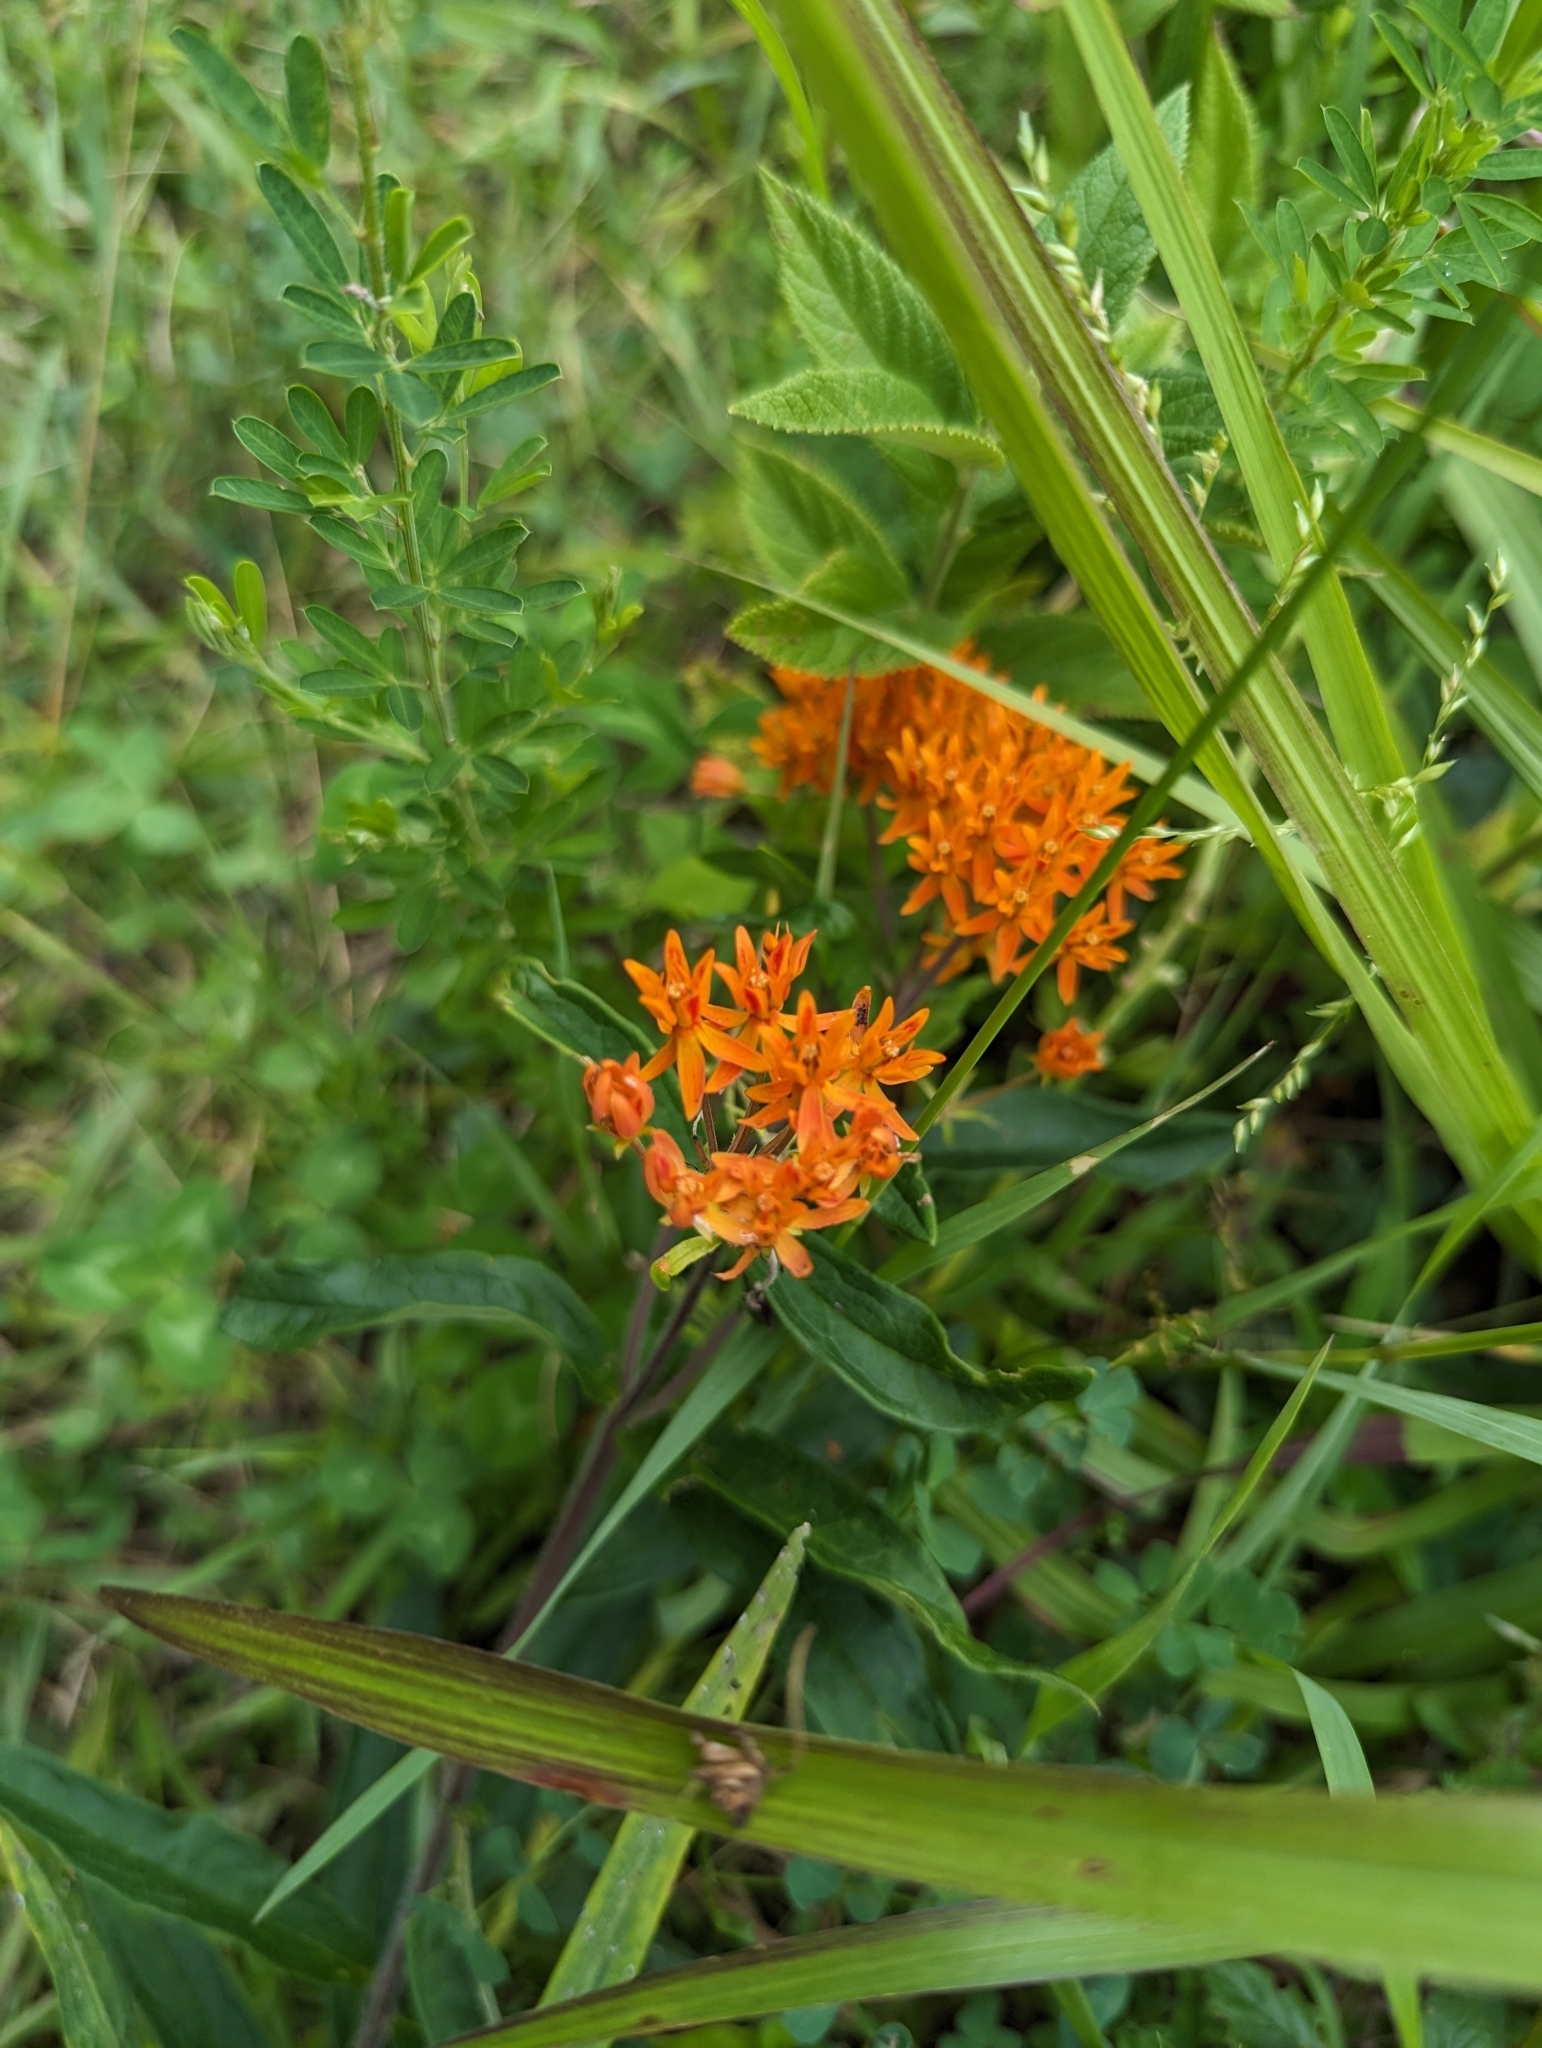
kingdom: Plantae
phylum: Tracheophyta
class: Magnoliopsida
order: Gentianales
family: Apocynaceae
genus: Asclepias
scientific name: Asclepias tuberosa
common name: Butterfly milkweed
